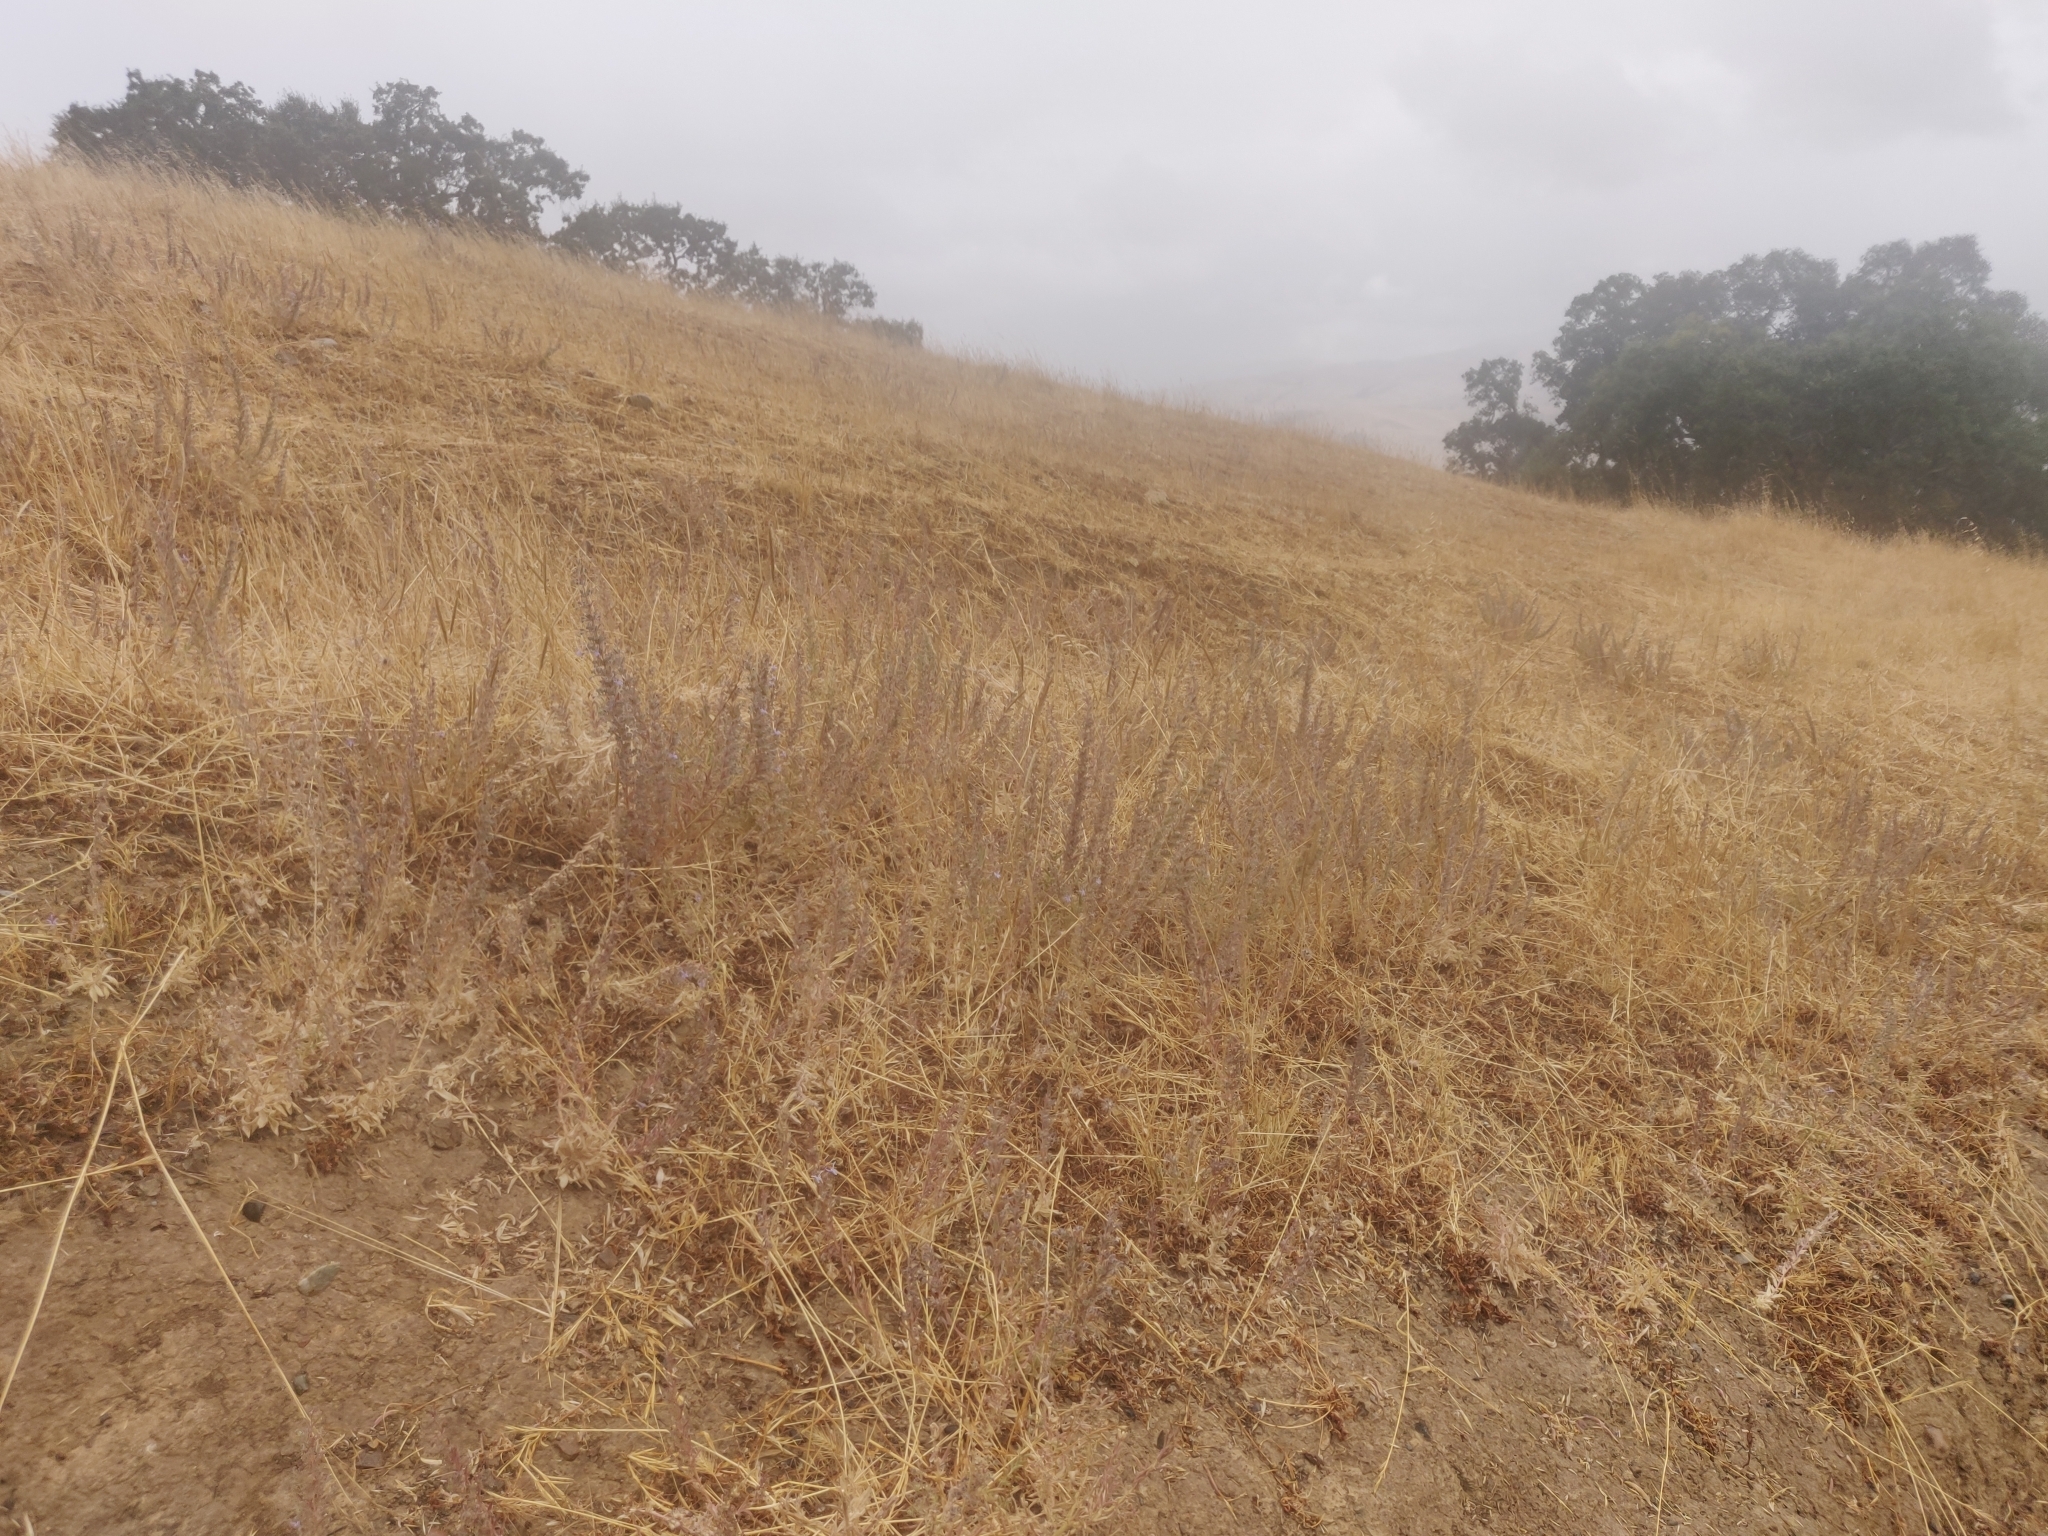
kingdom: Plantae
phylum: Tracheophyta
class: Magnoliopsida
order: Lamiales
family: Lamiaceae
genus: Trichostema
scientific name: Trichostema lanceolatum
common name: Vinegar-weed
